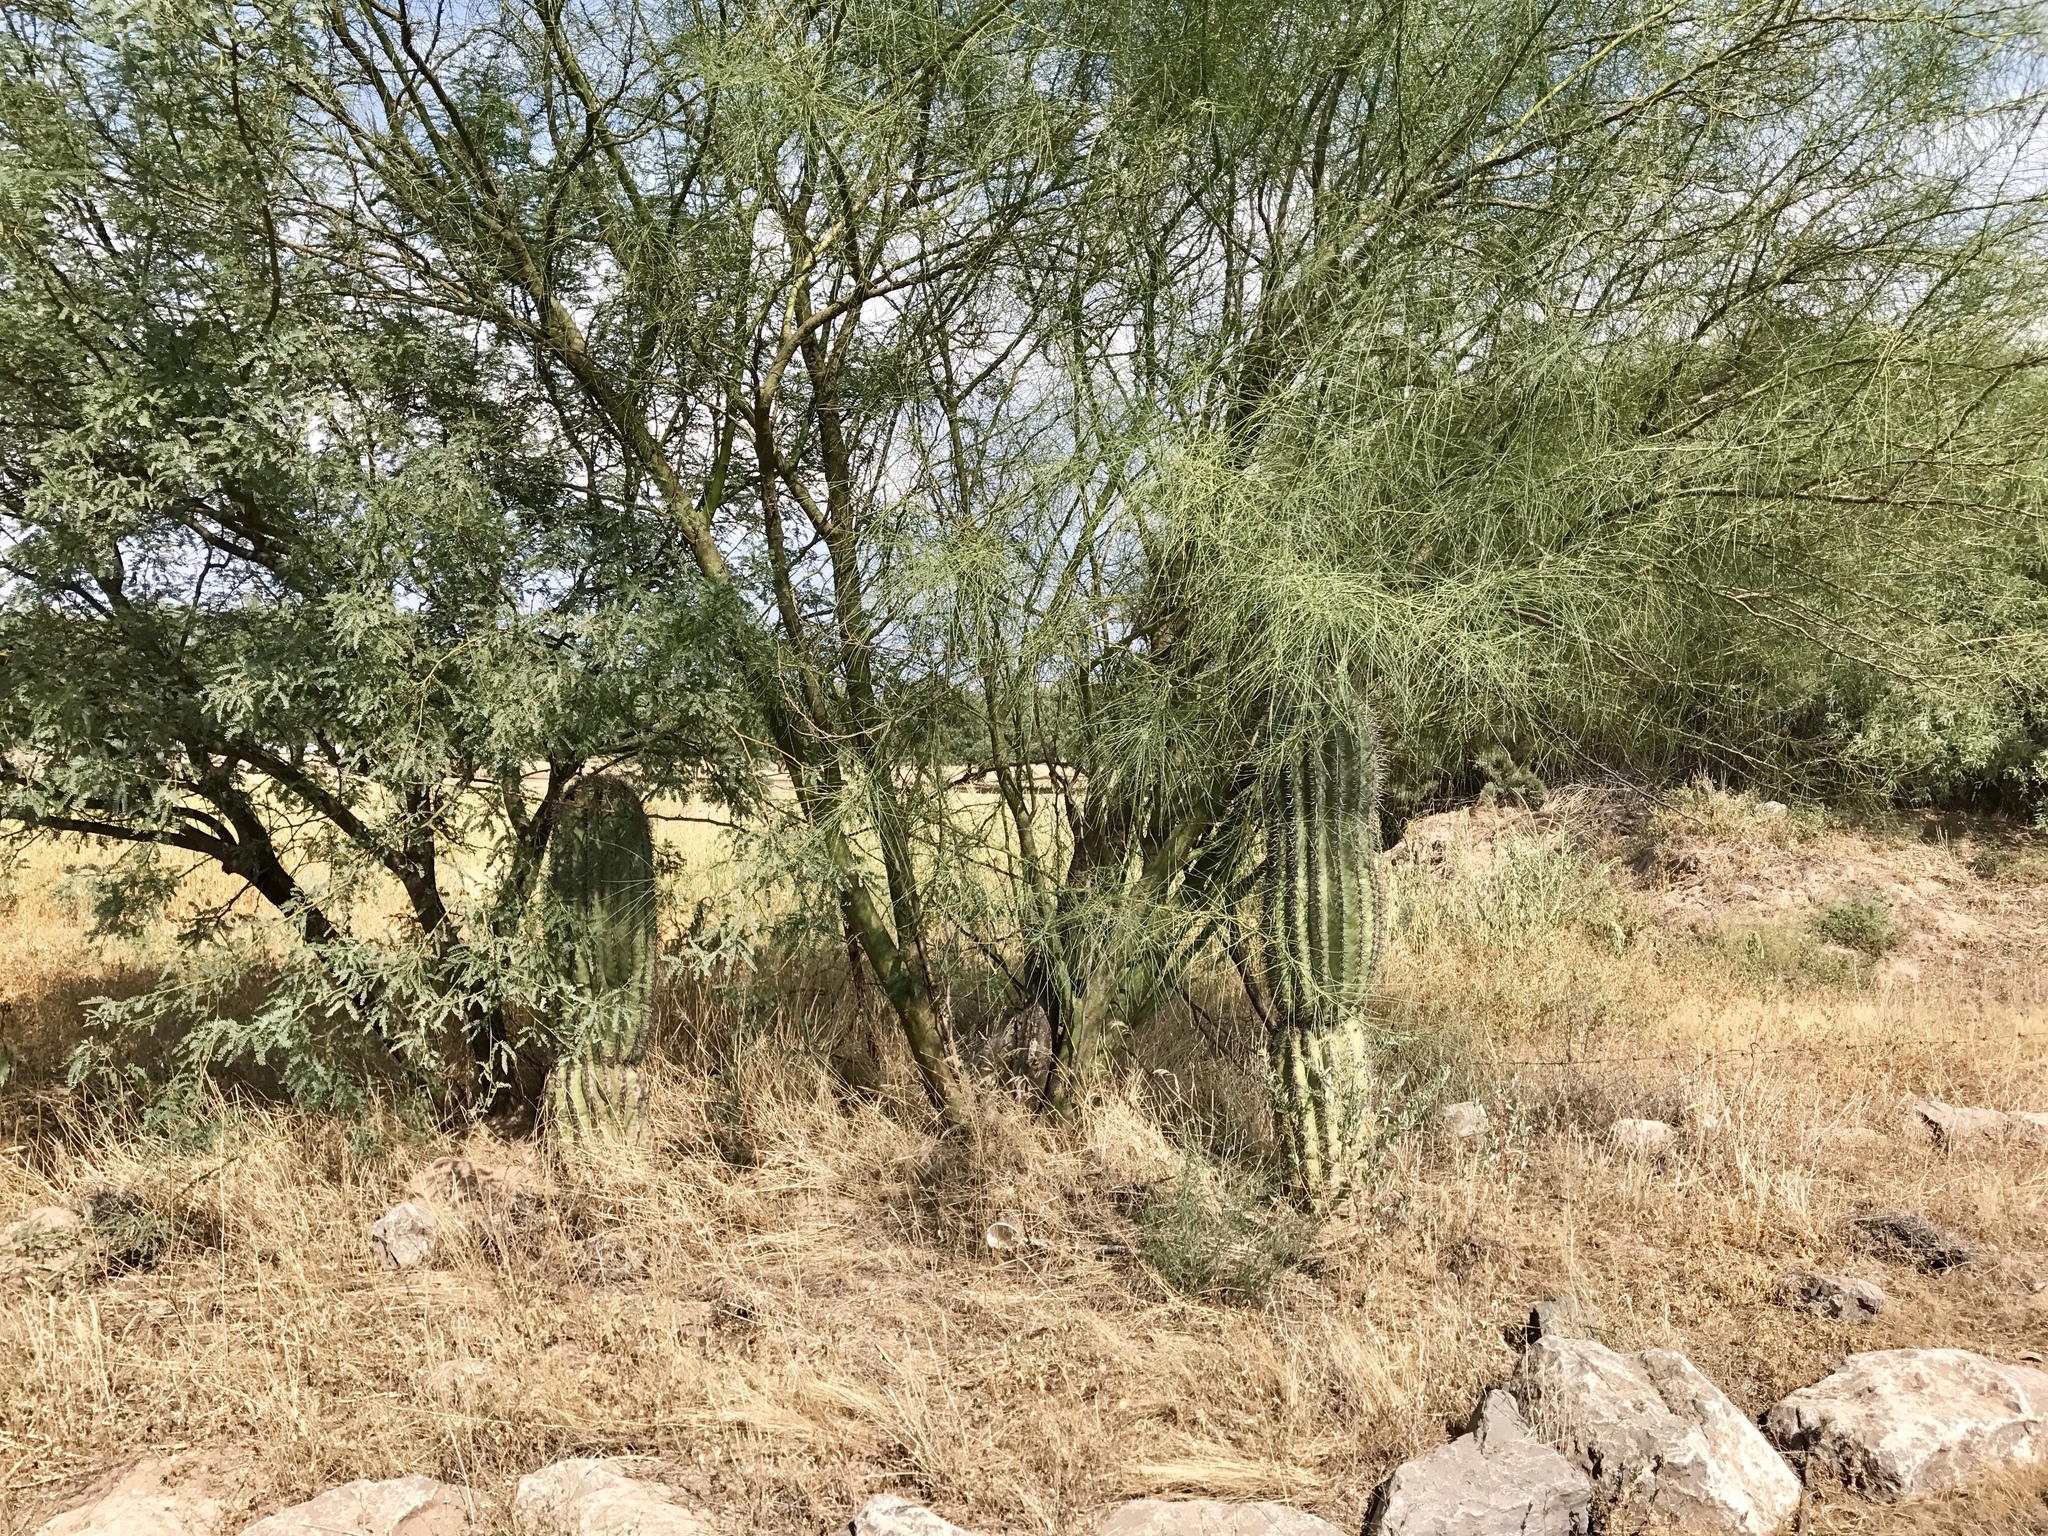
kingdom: Plantae
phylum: Tracheophyta
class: Magnoliopsida
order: Fabales
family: Fabaceae
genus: Parkinsonia
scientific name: Parkinsonia aculeata
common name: Jerusalem thorn
